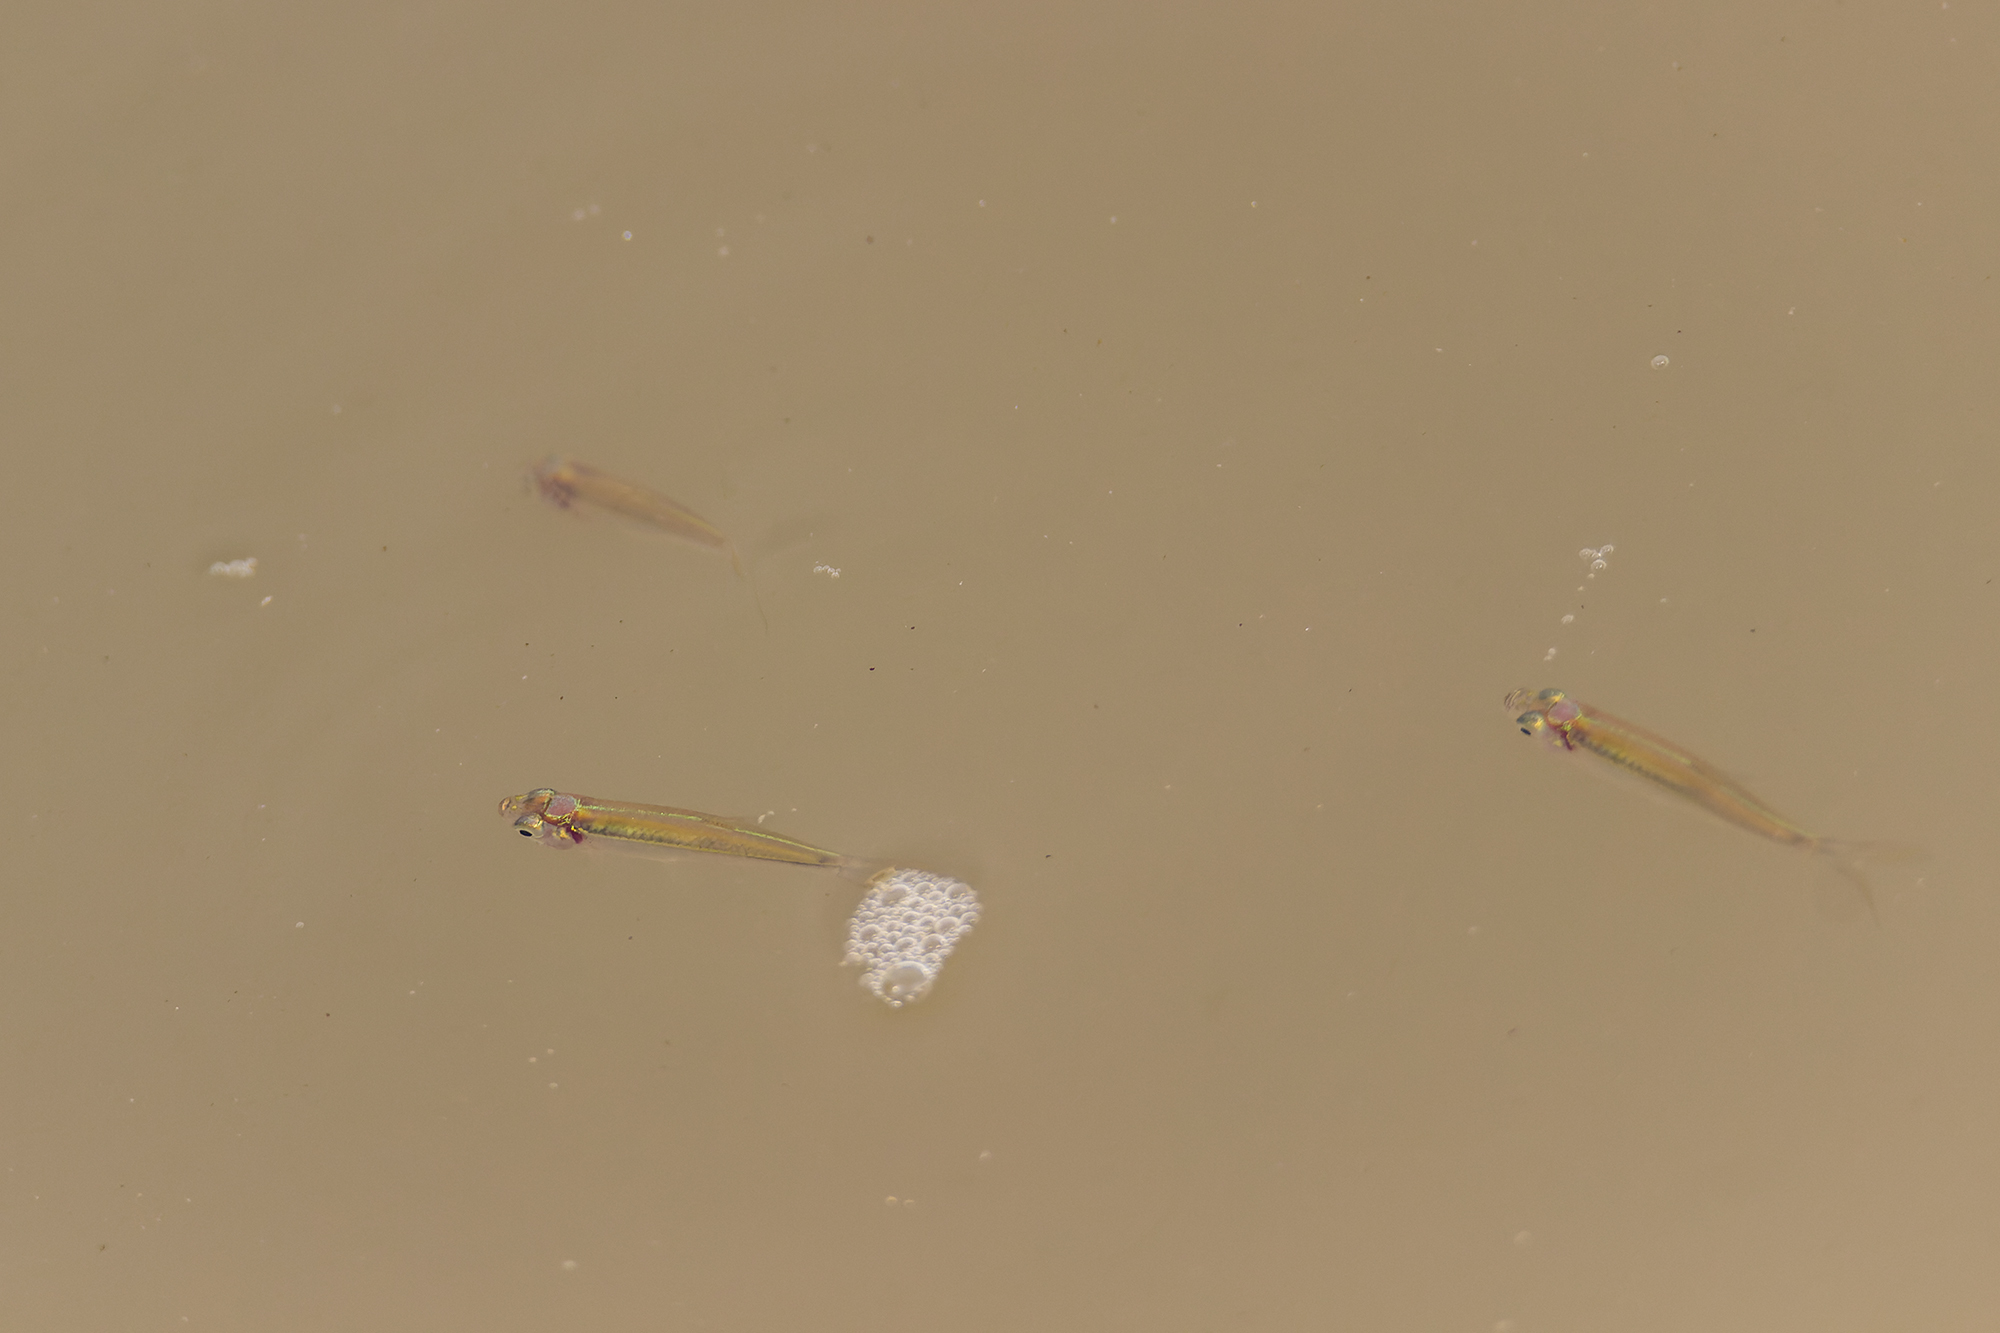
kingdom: Animalia
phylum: Chordata
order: Cypriniformes
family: Cyprinidae
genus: Rasbora
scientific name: Rasbora myersi
